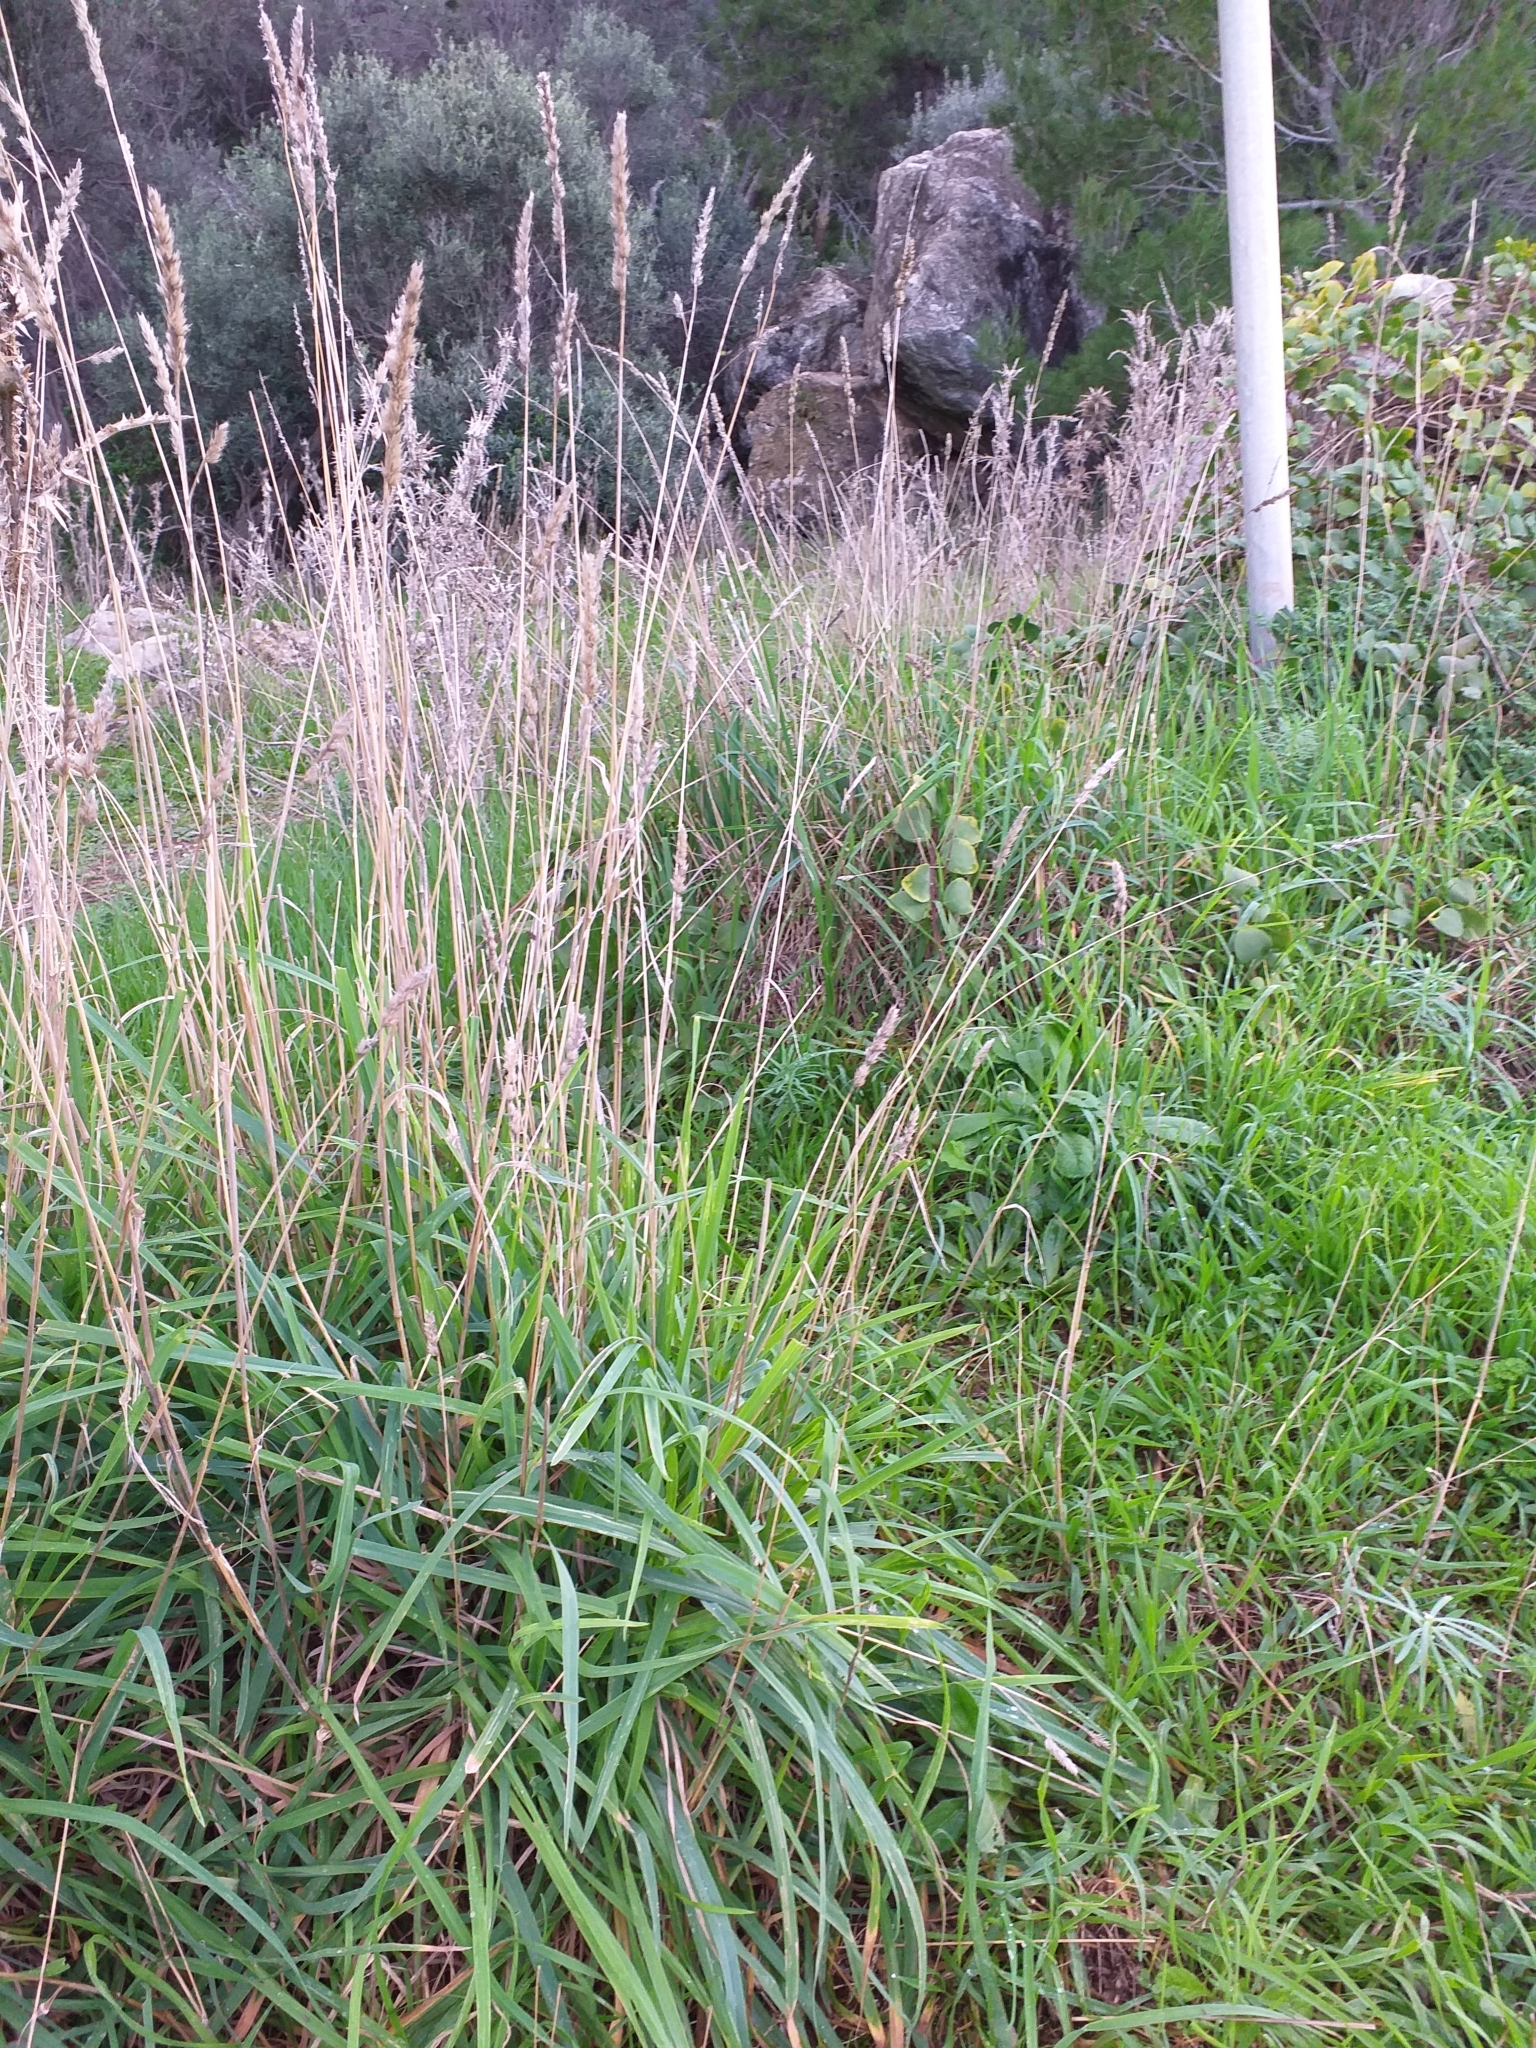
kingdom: Plantae
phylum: Tracheophyta
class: Liliopsida
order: Poales
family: Poaceae
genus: Dactylis
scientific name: Dactylis glomerata
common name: Orchardgrass
